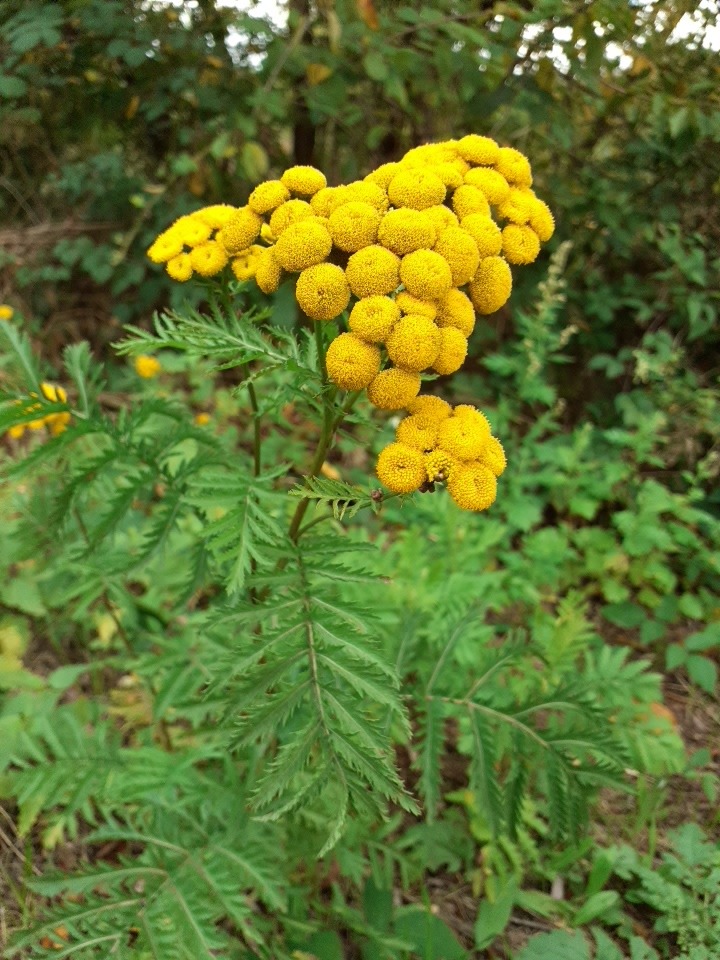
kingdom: Plantae
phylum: Tracheophyta
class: Magnoliopsida
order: Asterales
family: Asteraceae
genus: Tanacetum
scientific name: Tanacetum vulgare
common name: Common tansy
